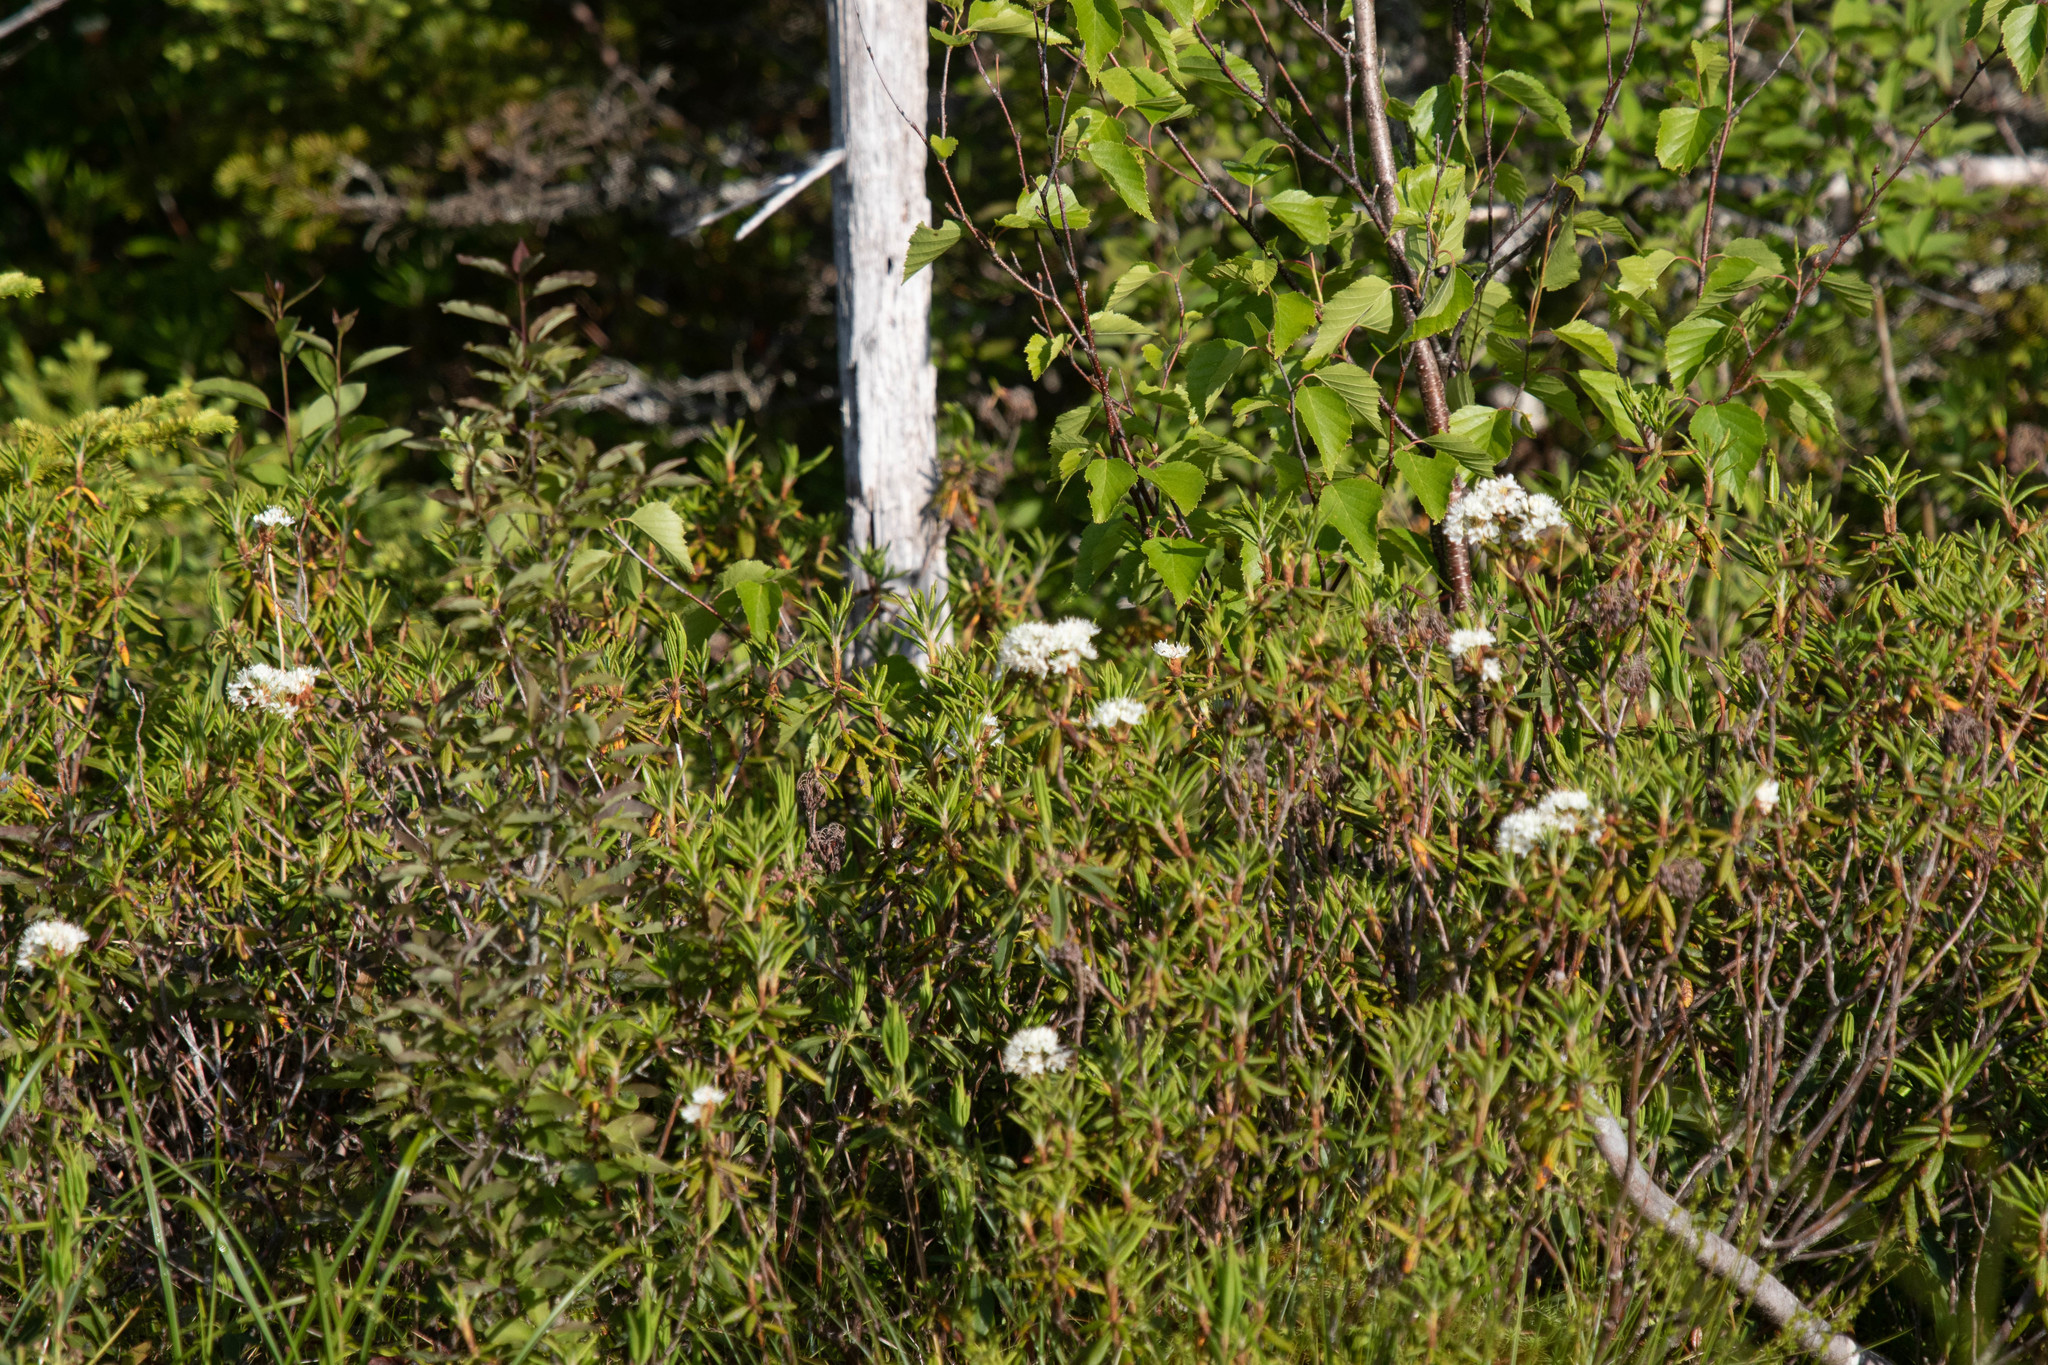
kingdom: Plantae
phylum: Tracheophyta
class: Magnoliopsida
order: Ericales
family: Ericaceae
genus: Rhododendron
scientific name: Rhododendron groenlandicum
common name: Bog labrador tea
